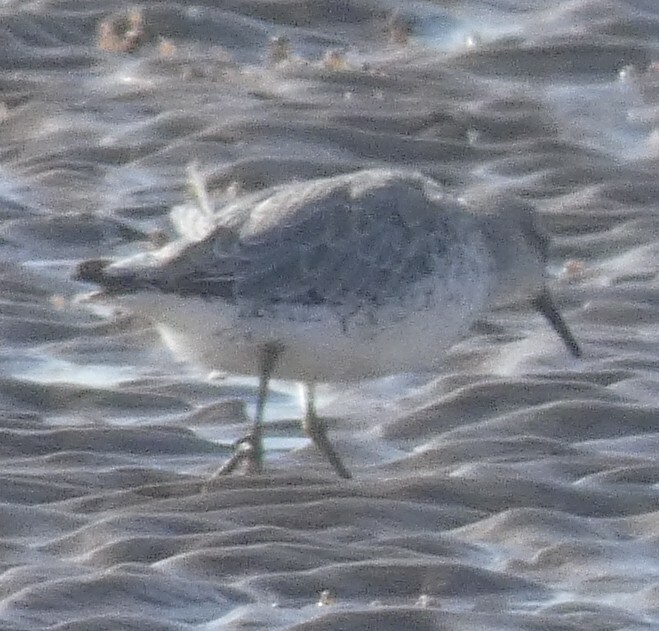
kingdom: Animalia
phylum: Chordata
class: Aves
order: Charadriiformes
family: Scolopacidae
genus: Calidris
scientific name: Calidris canutus
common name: Red knot
